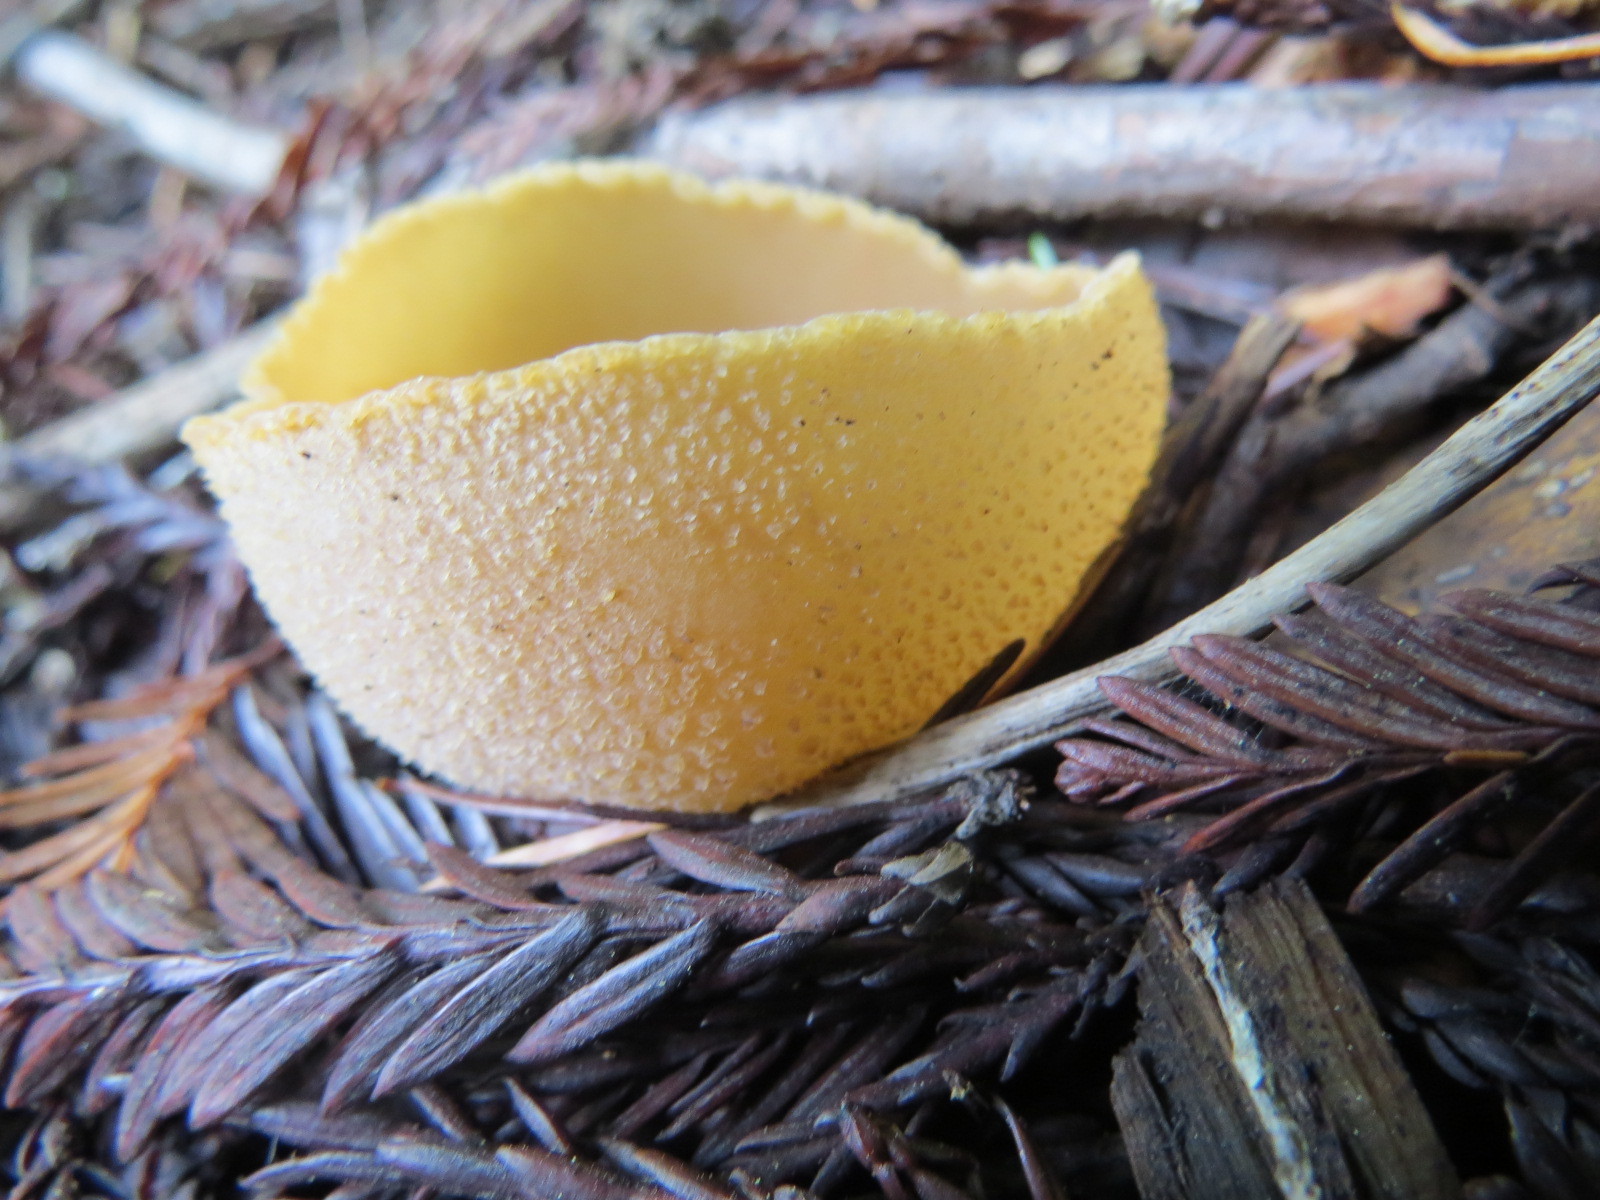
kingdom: Fungi
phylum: Ascomycota
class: Pezizomycetes
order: Pezizales
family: Pezizaceae
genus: Peziza
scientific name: Peziza varia
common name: Layered cup
